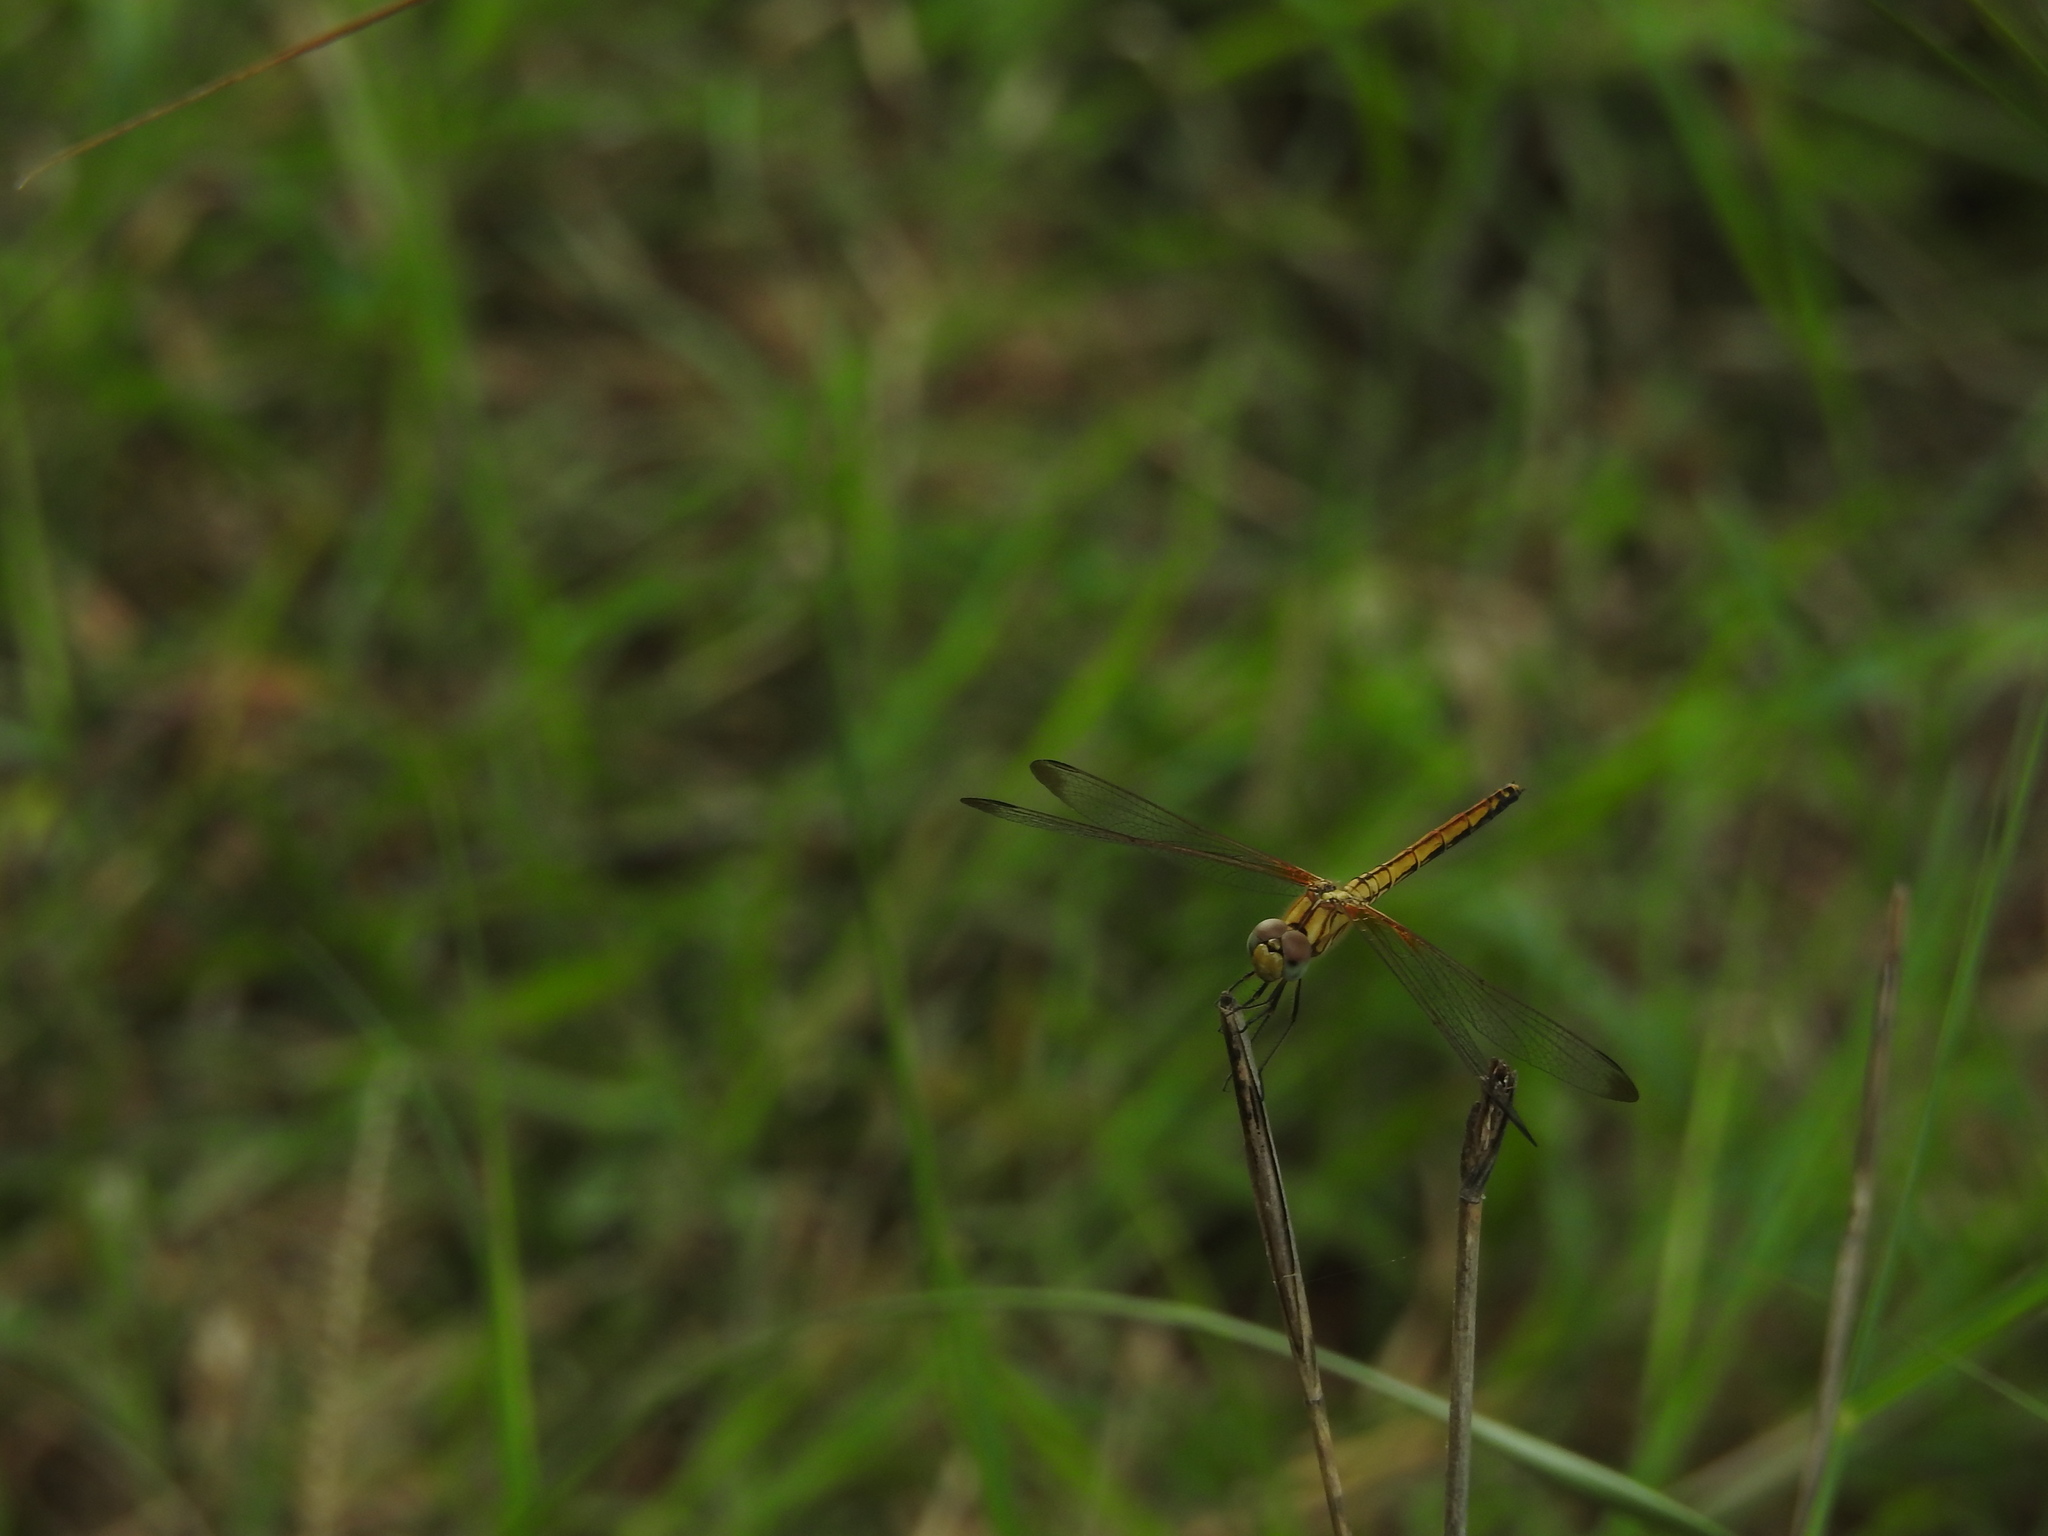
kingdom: Animalia
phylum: Arthropoda
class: Insecta
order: Odonata
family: Libellulidae
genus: Trithemis
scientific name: Trithemis aurora
